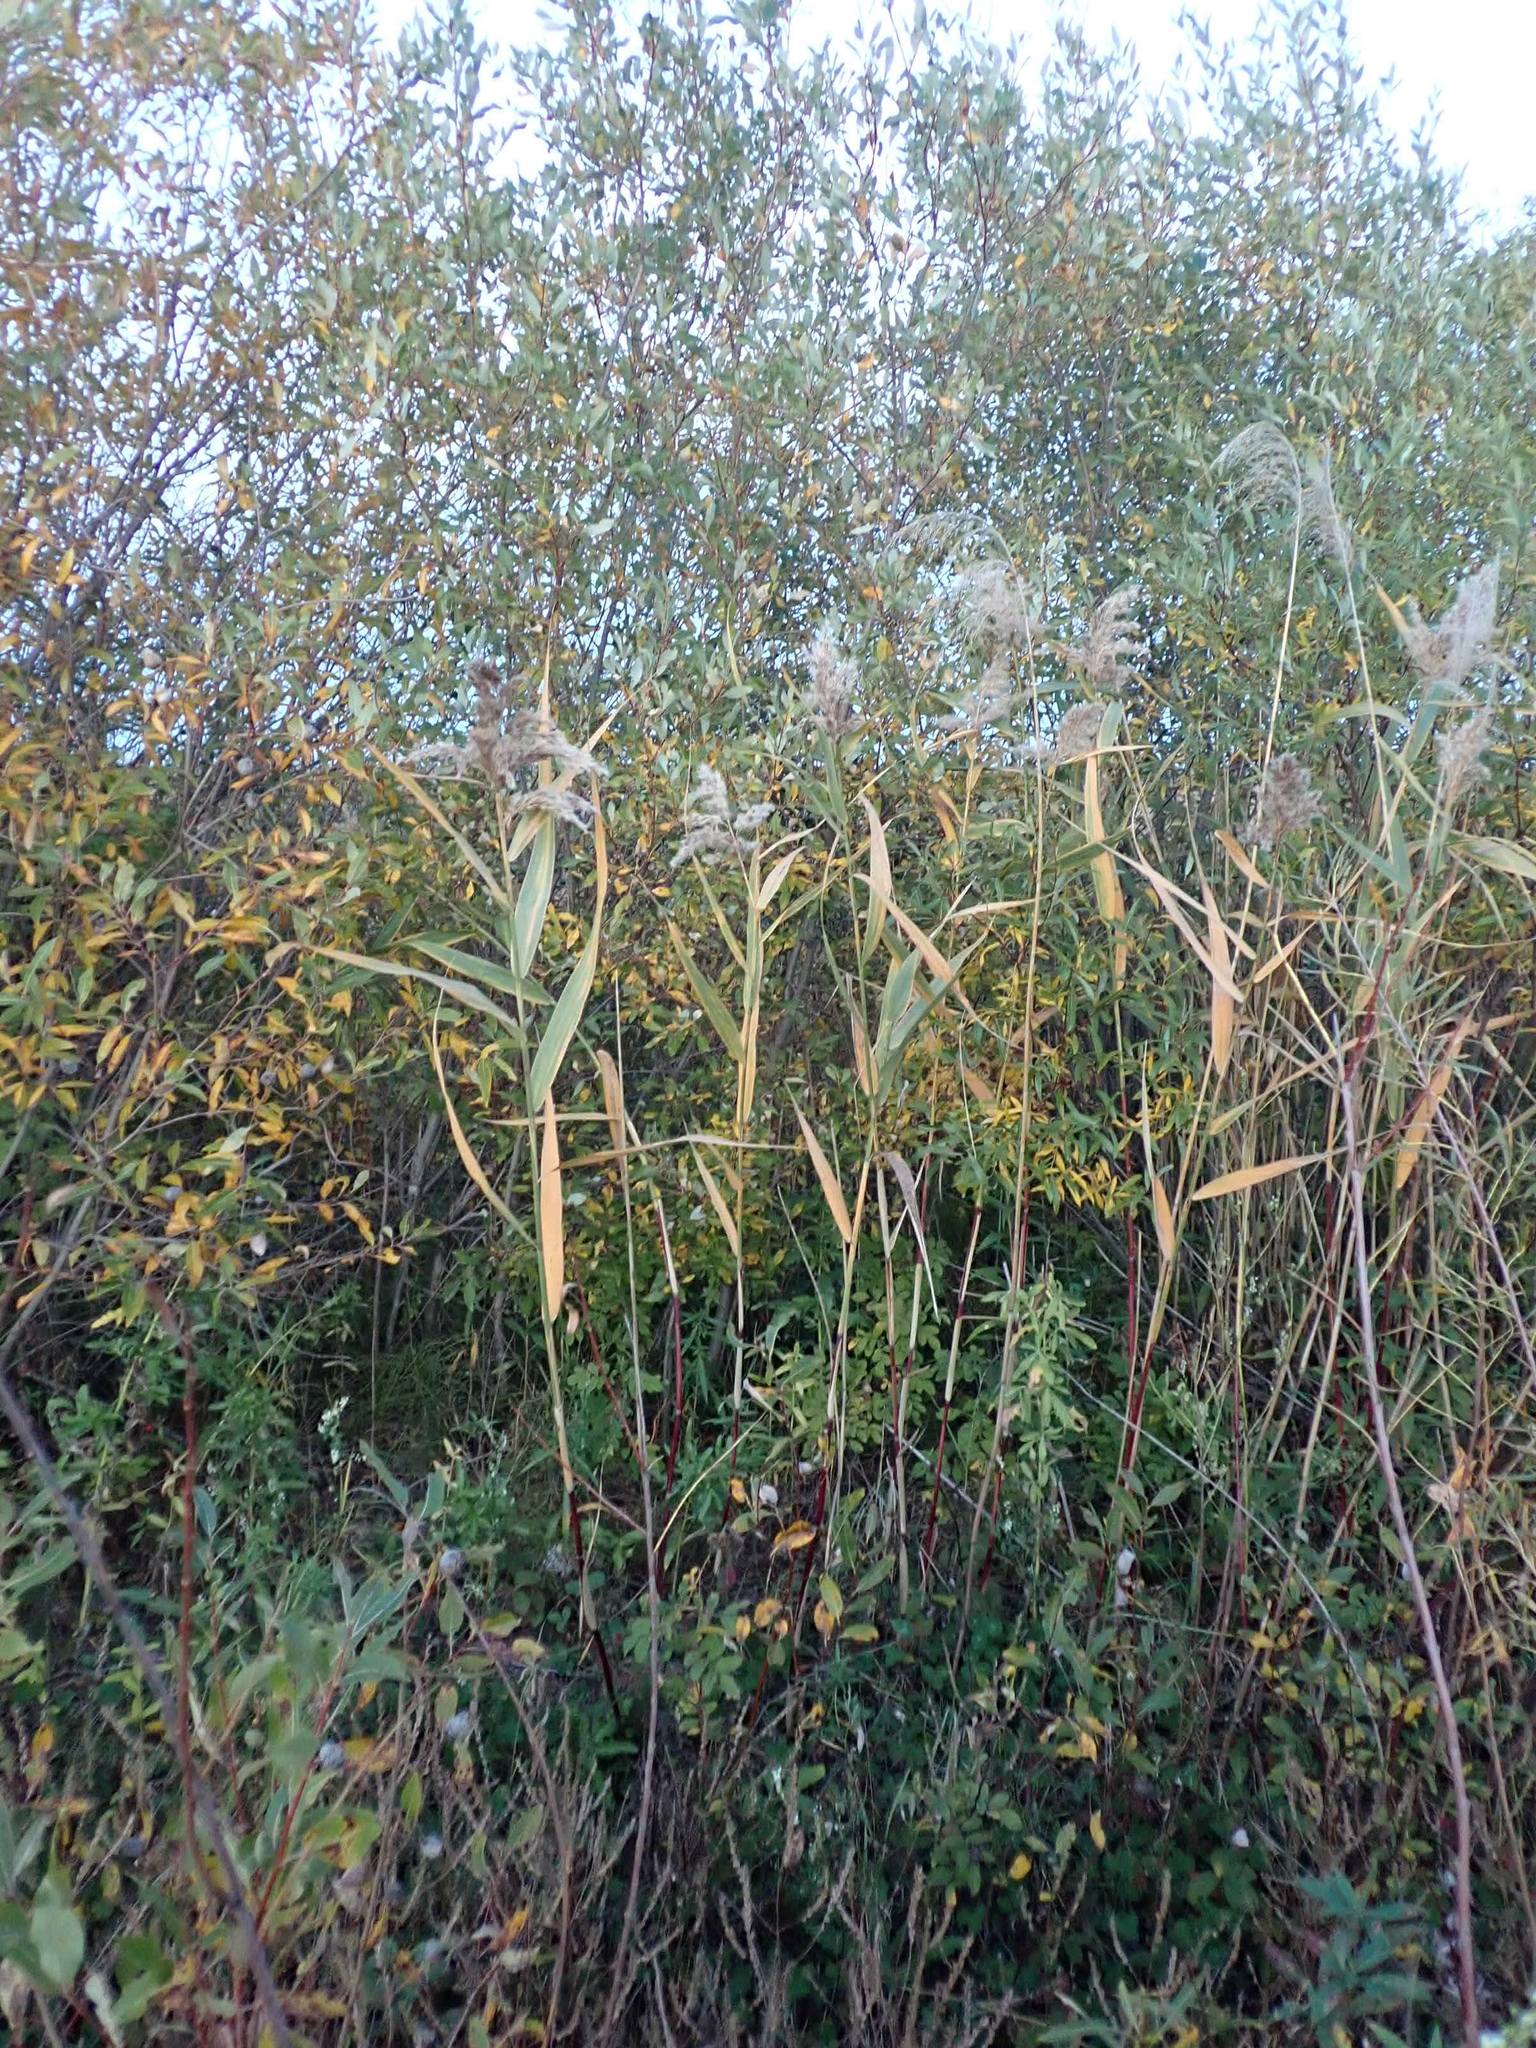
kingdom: Plantae
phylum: Tracheophyta
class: Liliopsida
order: Poales
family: Poaceae
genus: Phragmites
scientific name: Phragmites australis
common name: Common reed
